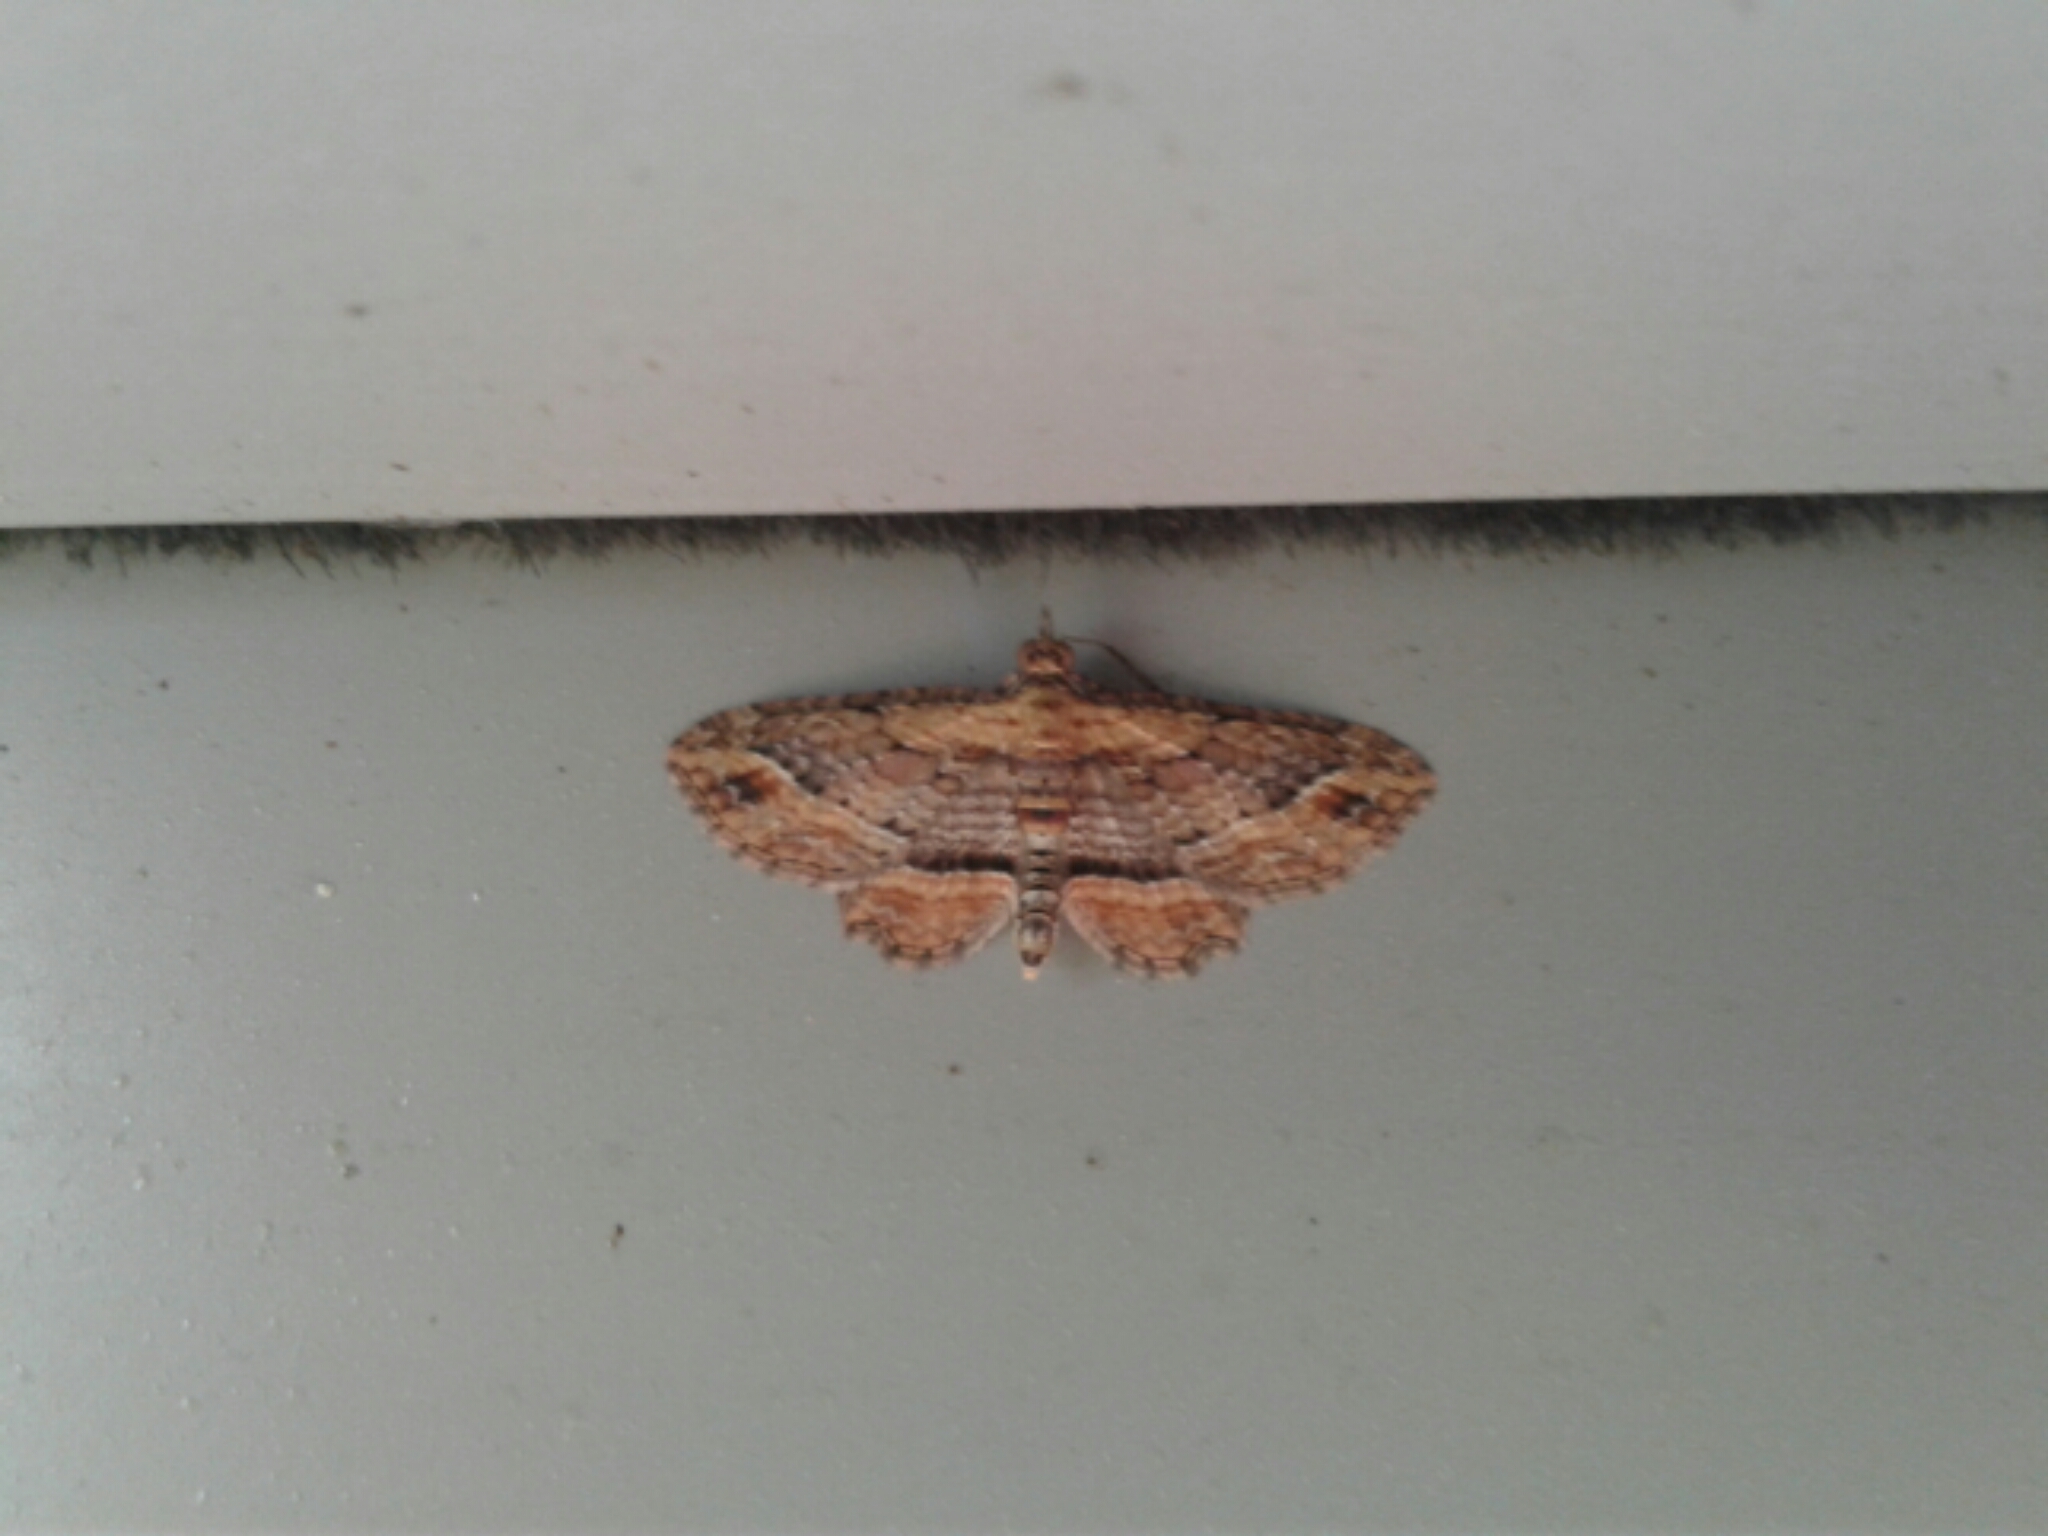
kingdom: Animalia
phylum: Arthropoda
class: Insecta
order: Lepidoptera
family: Geometridae
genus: Chloroclystis
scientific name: Chloroclystis filata
